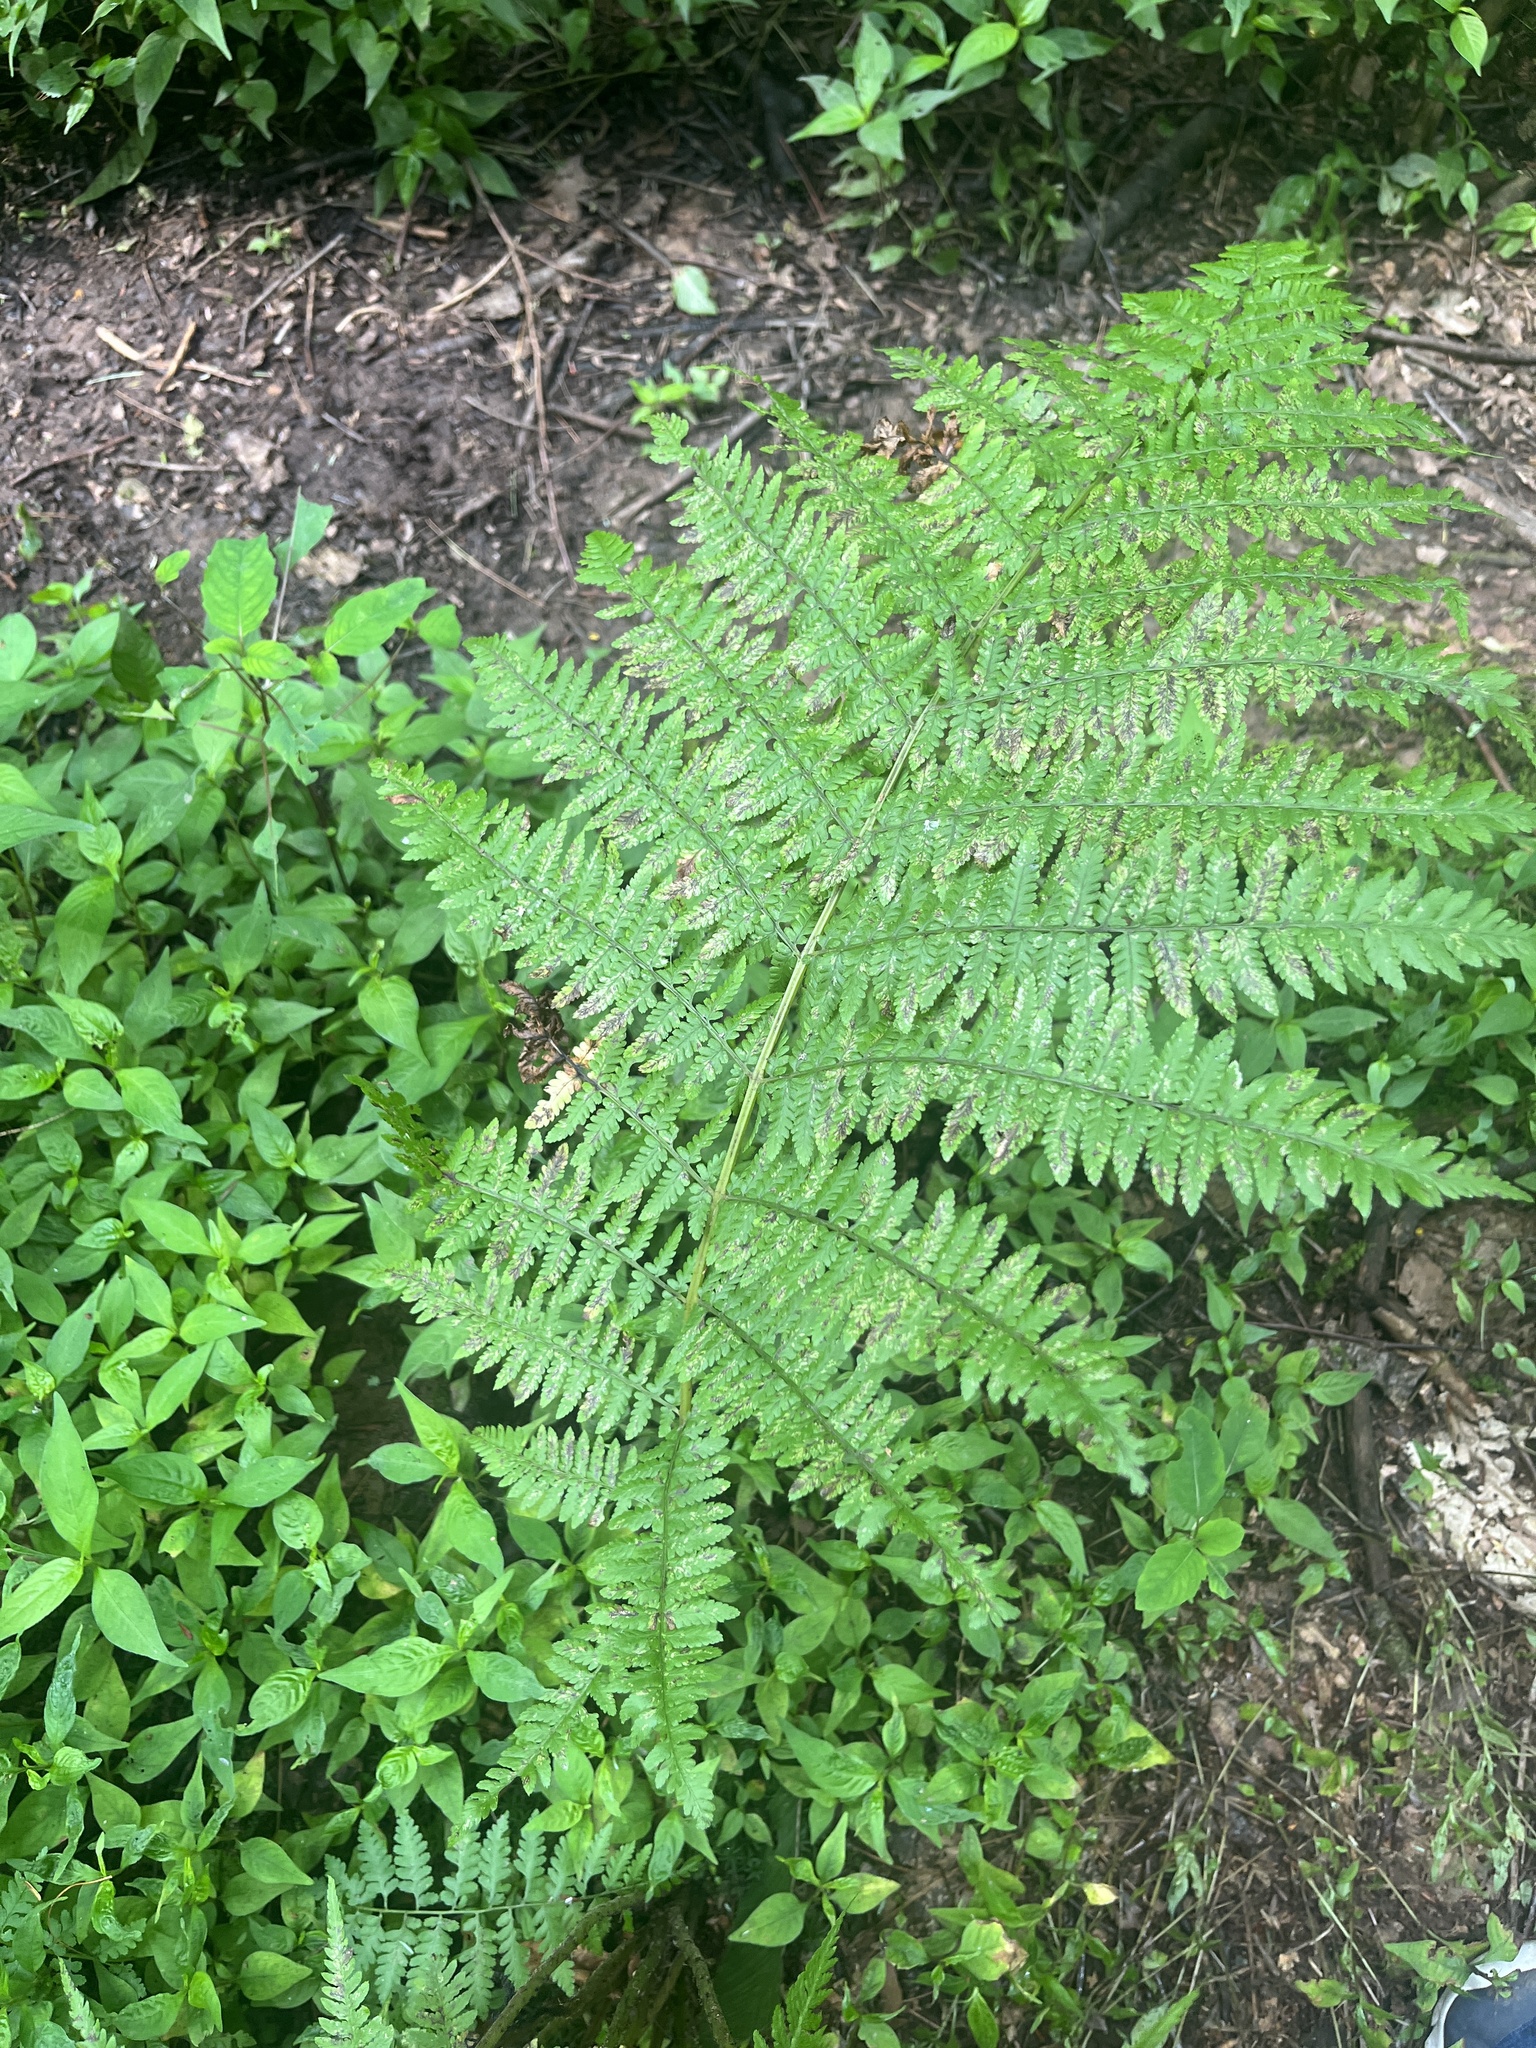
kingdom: Plantae
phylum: Tracheophyta
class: Polypodiopsida
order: Polypodiales
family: Athyriaceae
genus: Athyrium
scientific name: Athyrium angustum
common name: Northern lady fern
